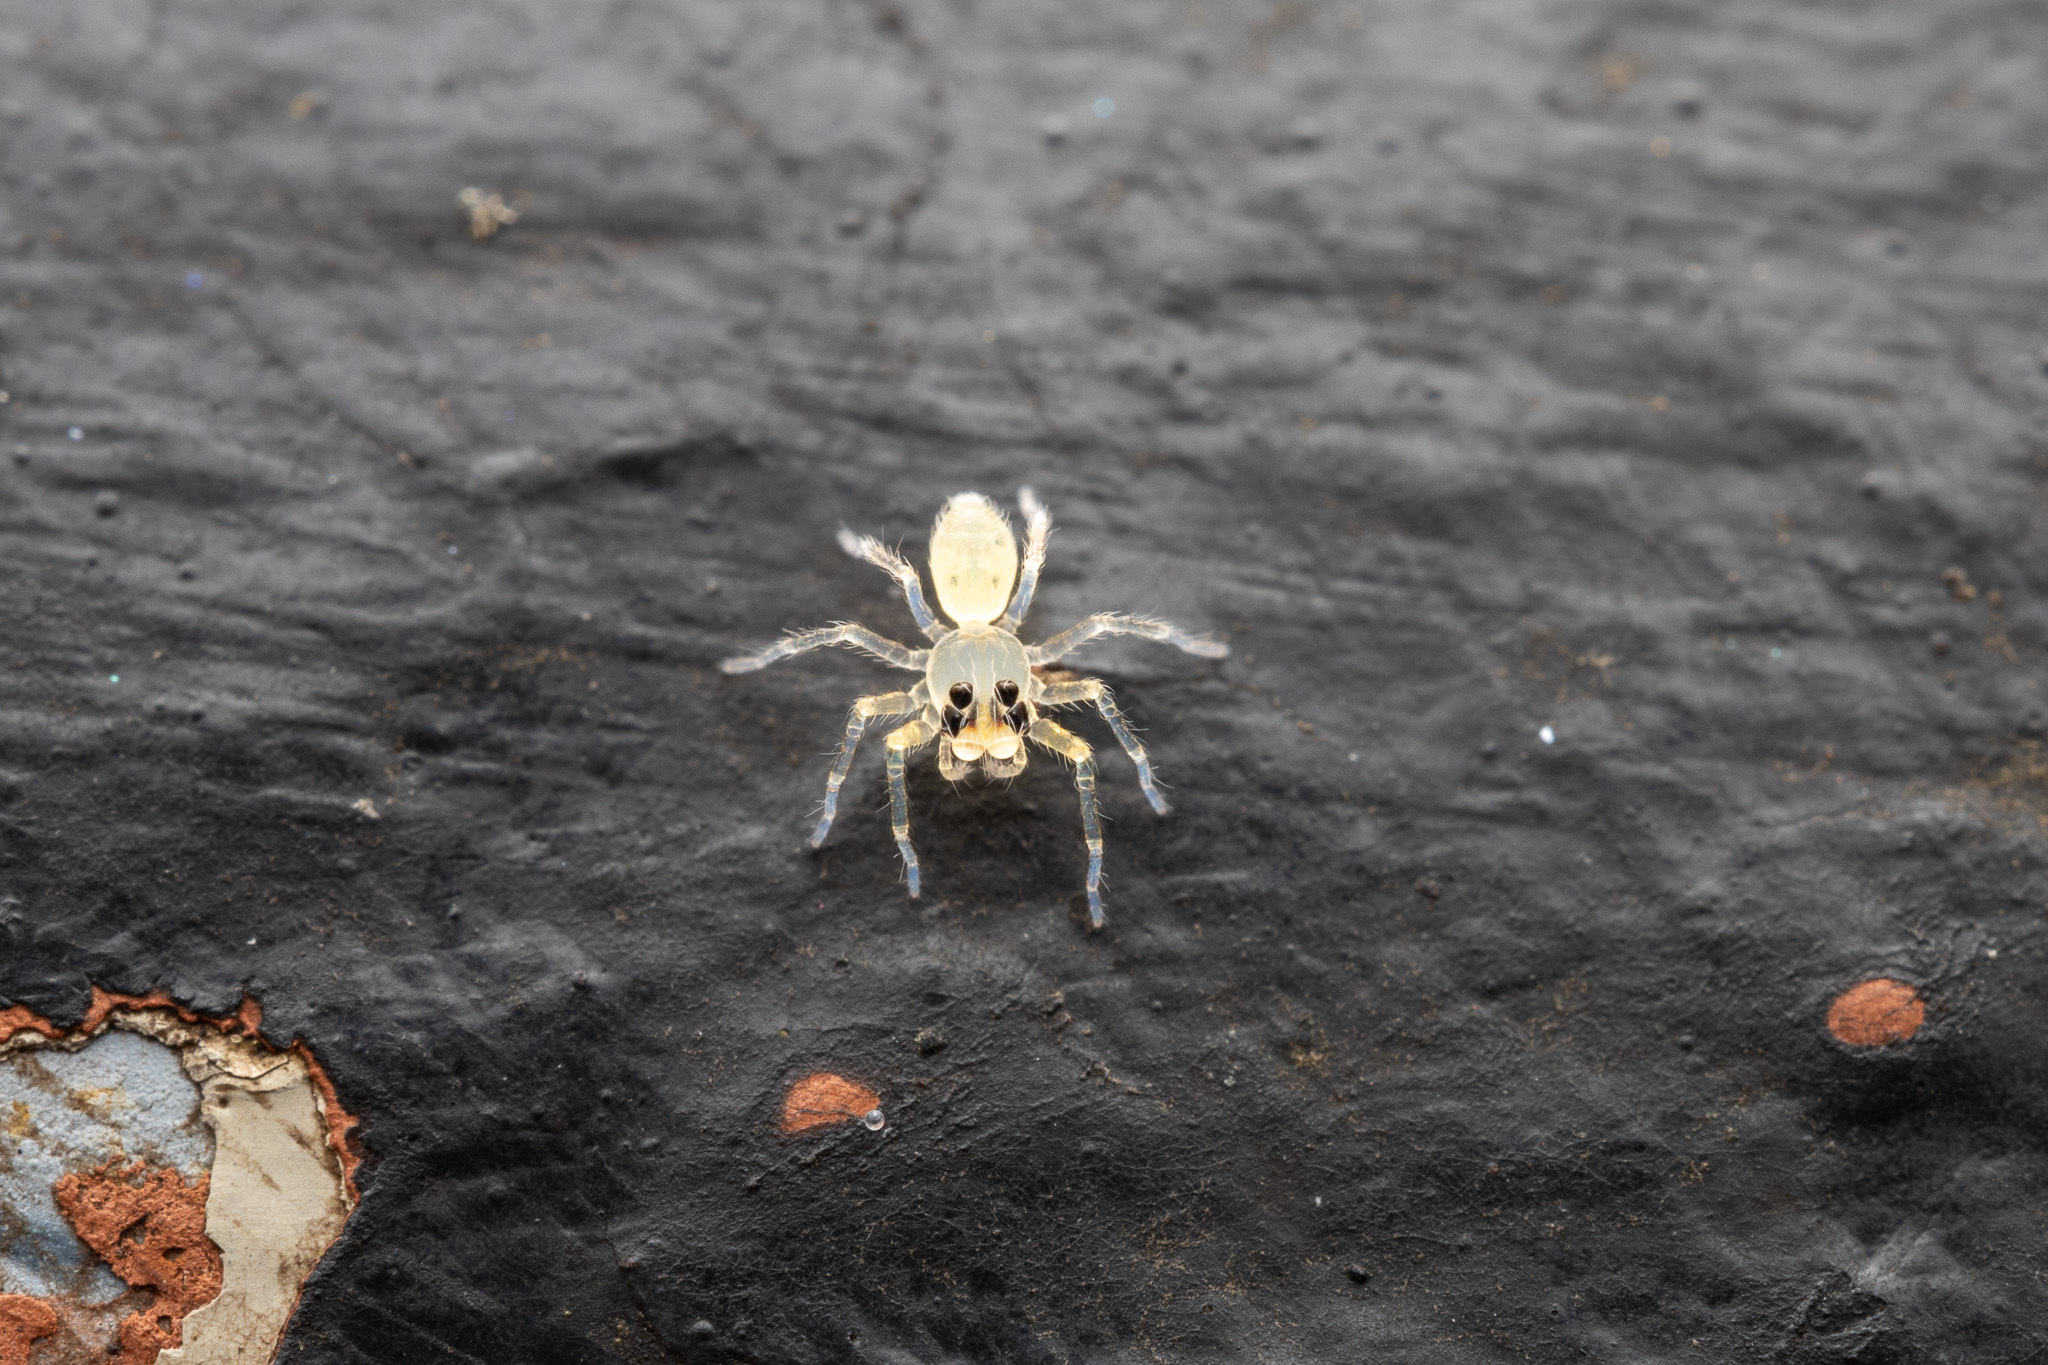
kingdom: Animalia
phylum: Arthropoda
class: Arachnida
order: Araneae
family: Salticidae
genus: Lyssomanes
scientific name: Lyssomanes viridis
